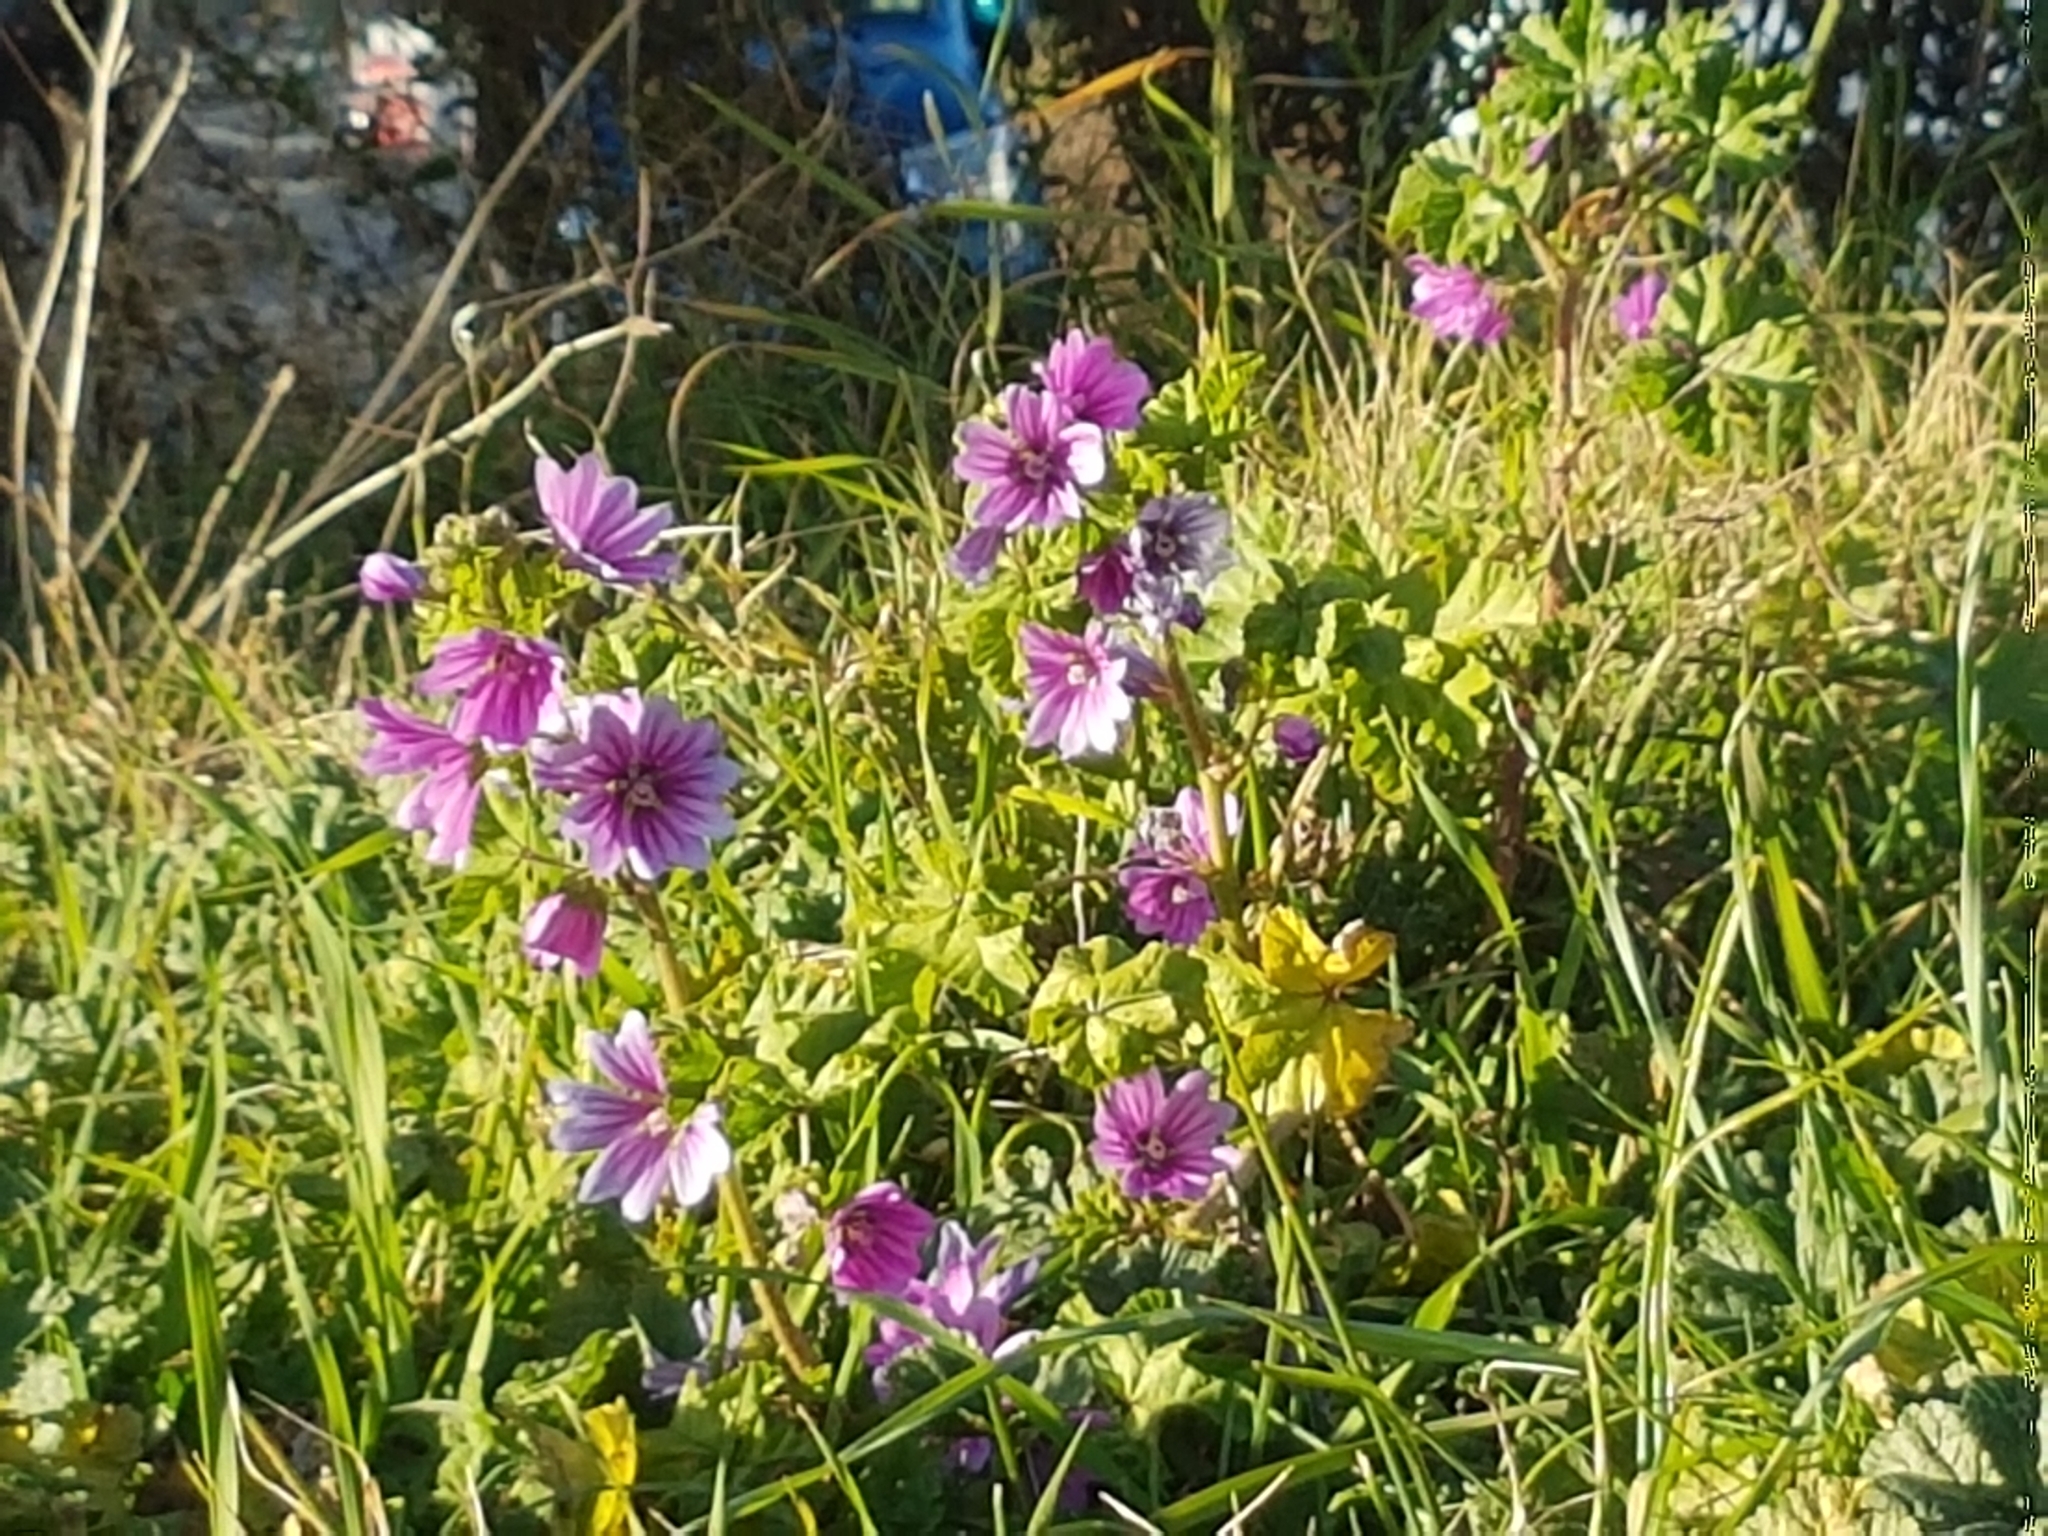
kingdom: Plantae
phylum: Tracheophyta
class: Magnoliopsida
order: Malvales
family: Malvaceae
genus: Malva
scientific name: Malva sylvestris
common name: Common mallow
